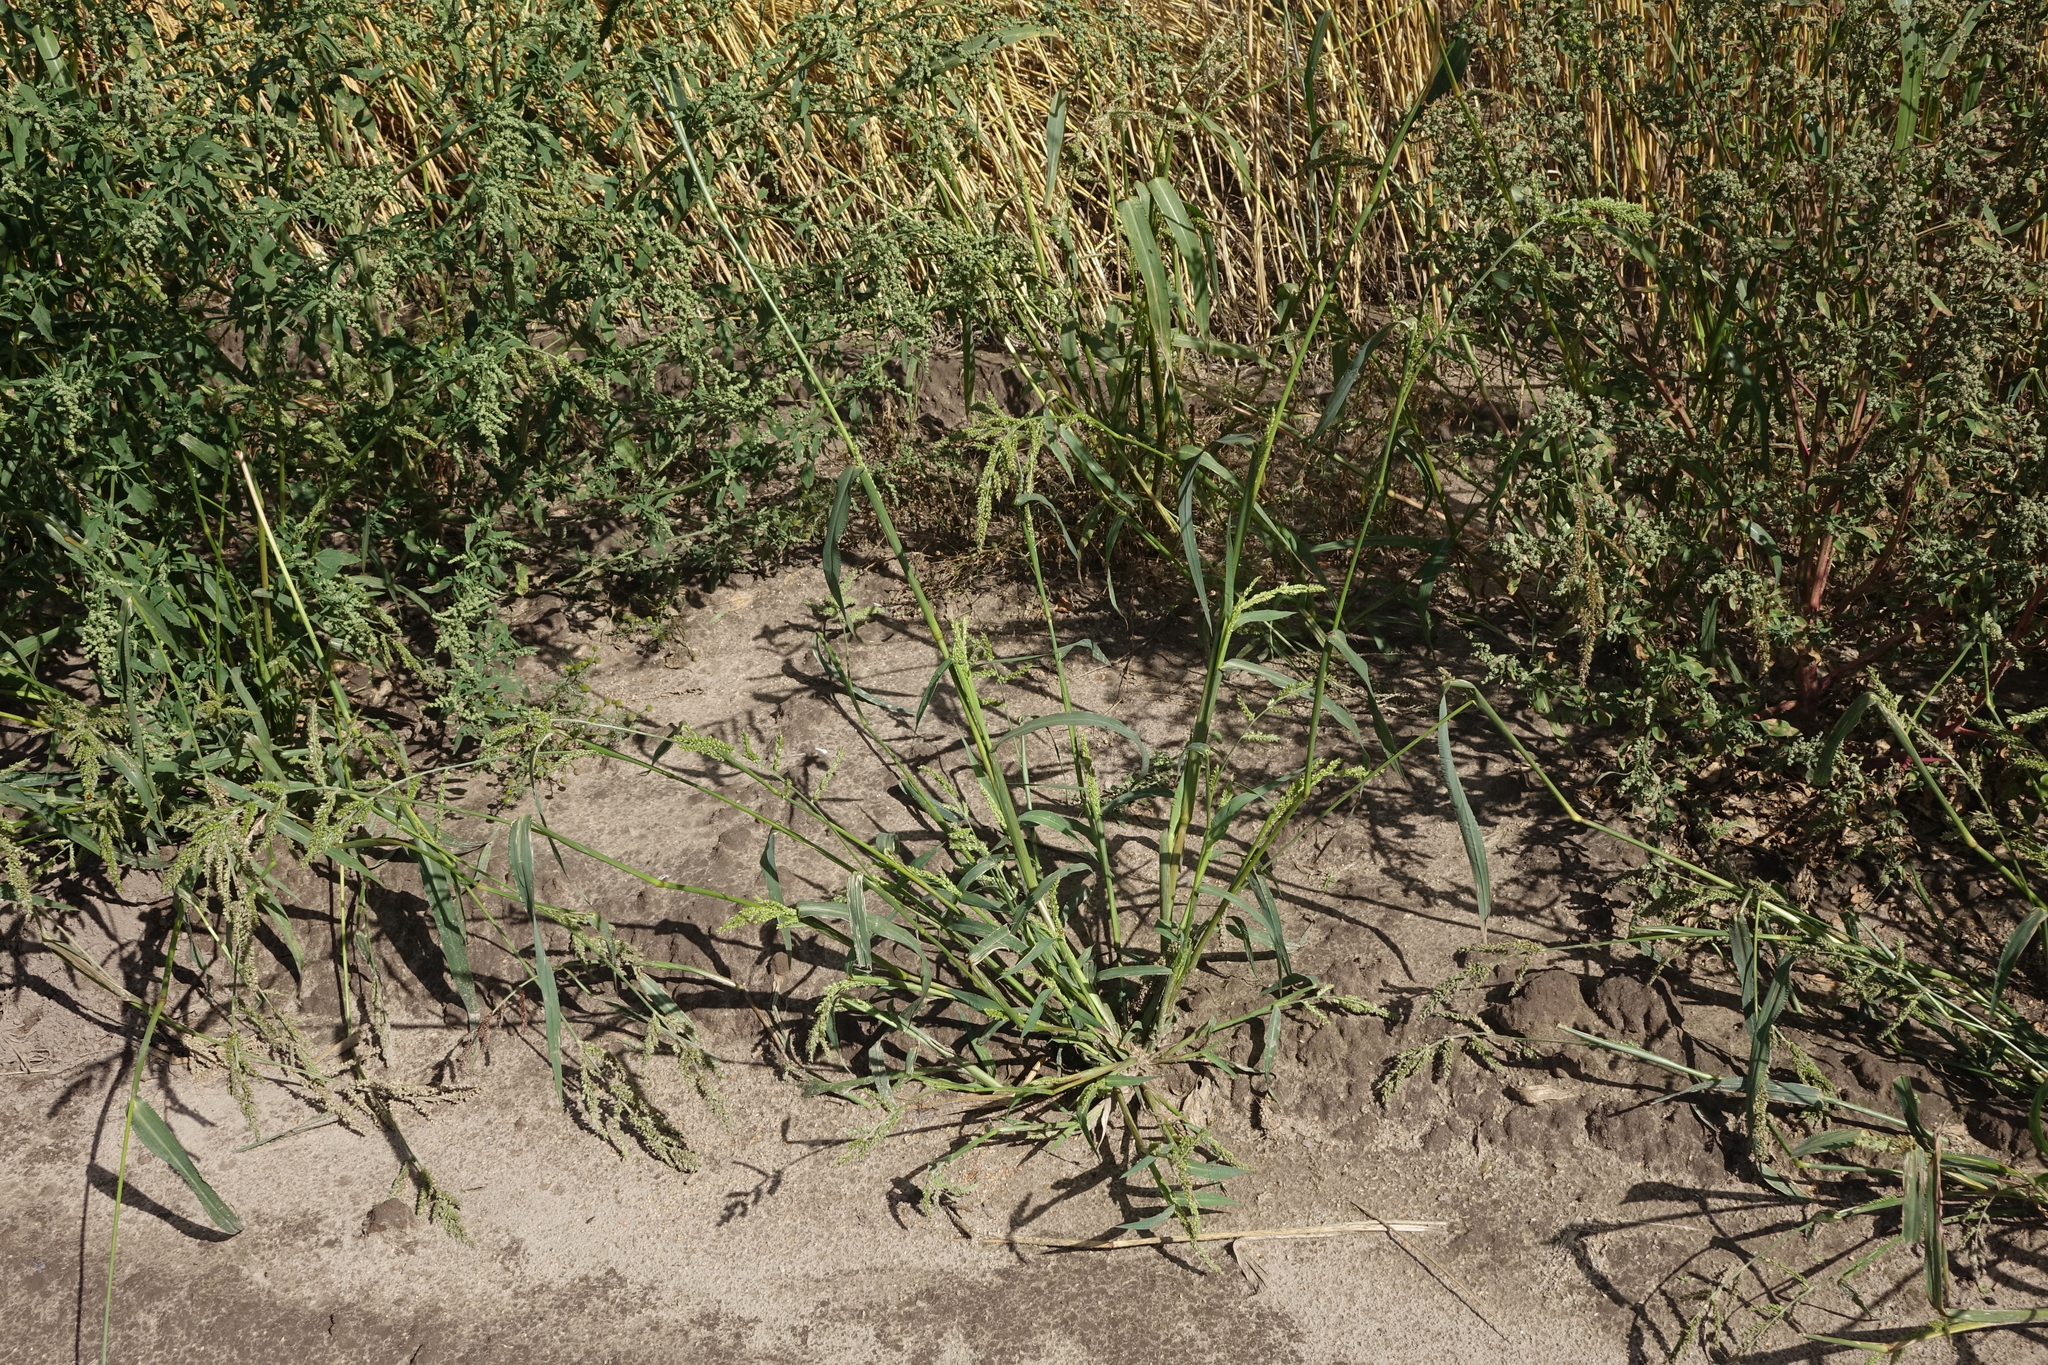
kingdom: Plantae
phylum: Tracheophyta
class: Liliopsida
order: Poales
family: Poaceae
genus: Echinochloa
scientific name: Echinochloa crus-galli
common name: Cockspur
